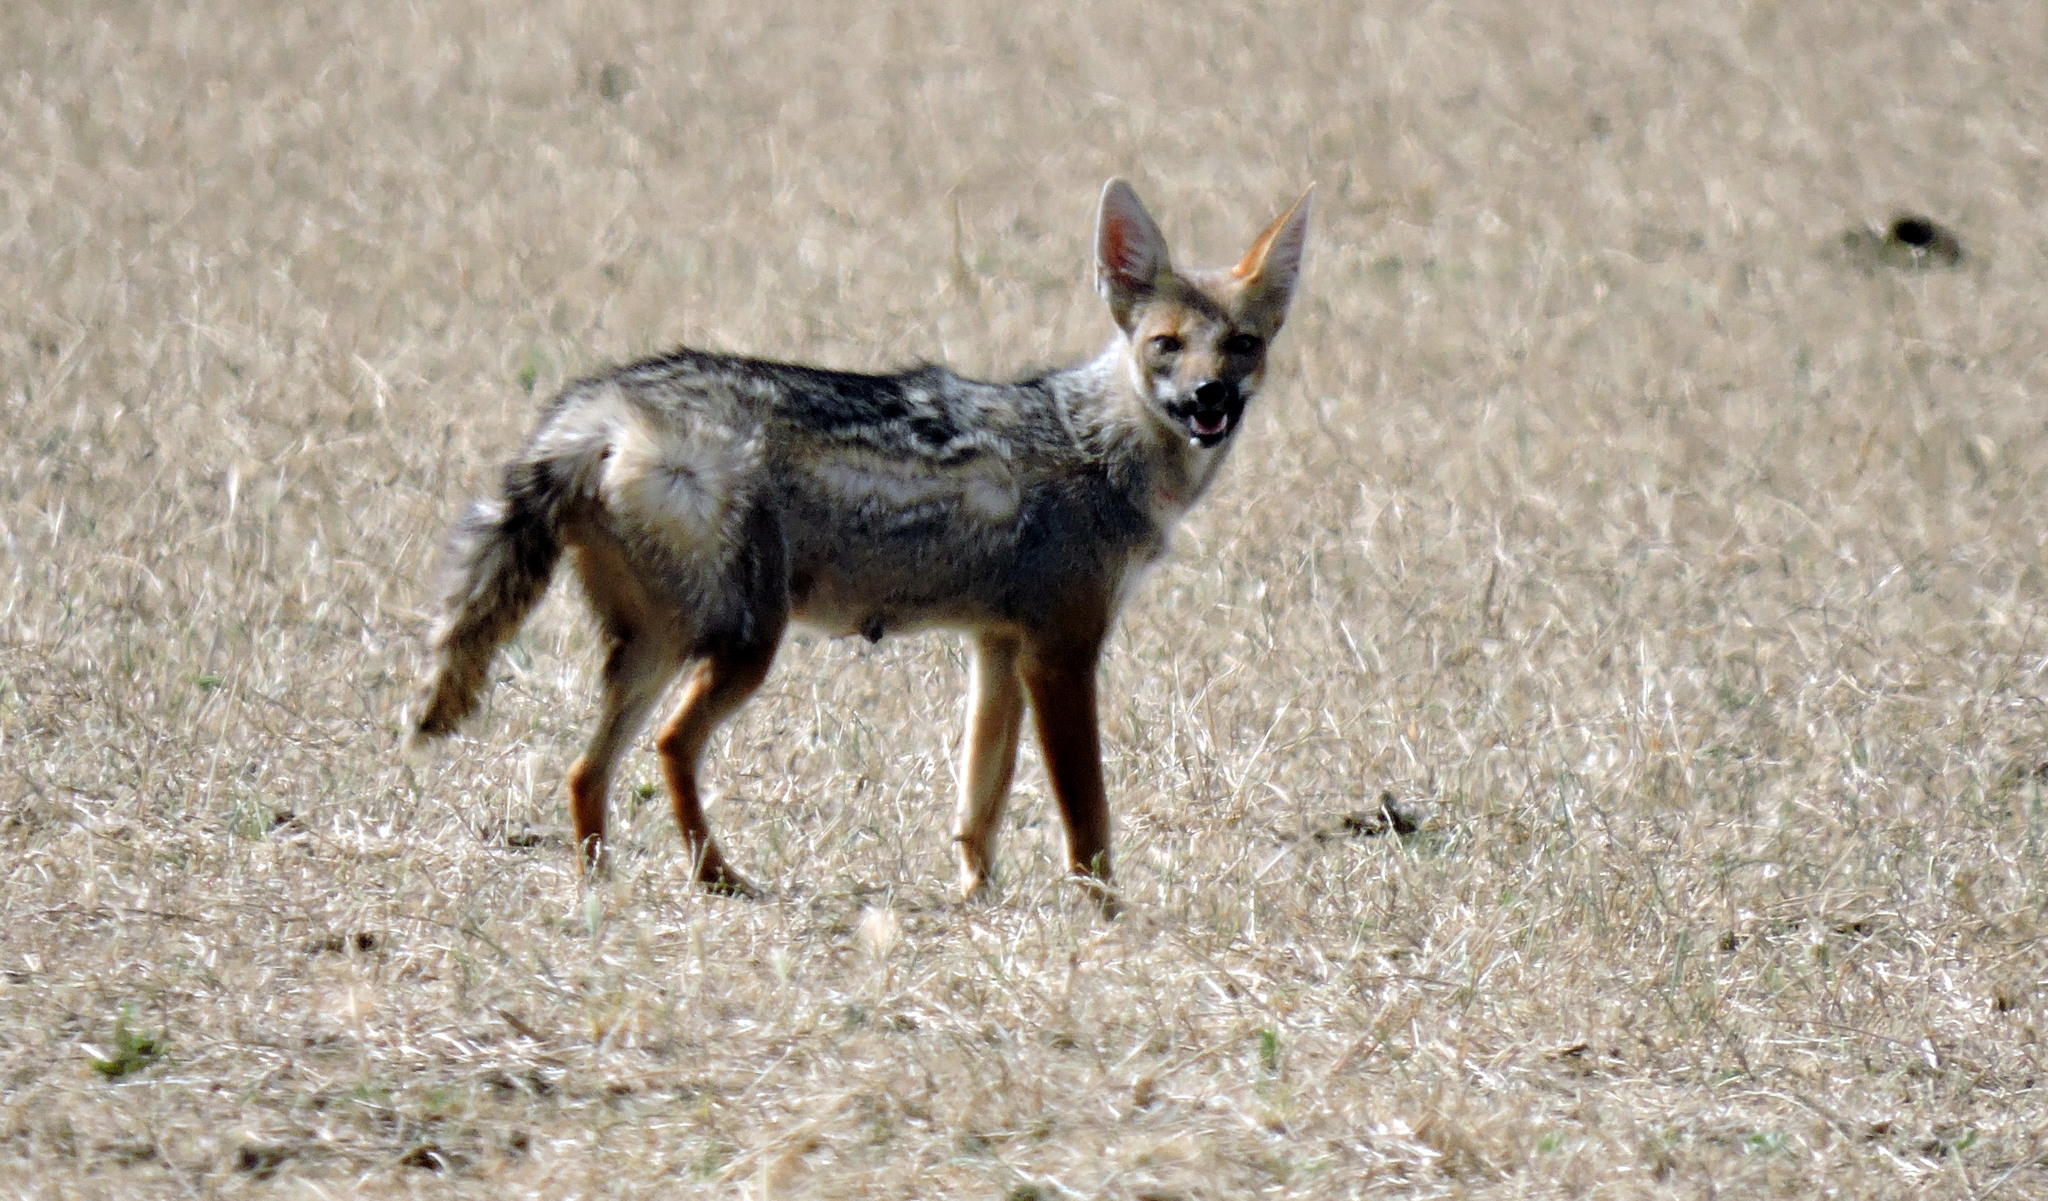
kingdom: Animalia
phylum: Chordata
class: Mammalia
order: Carnivora
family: Canidae
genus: Lycalopex
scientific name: Lycalopex gymnocercus
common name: Pampas fox
